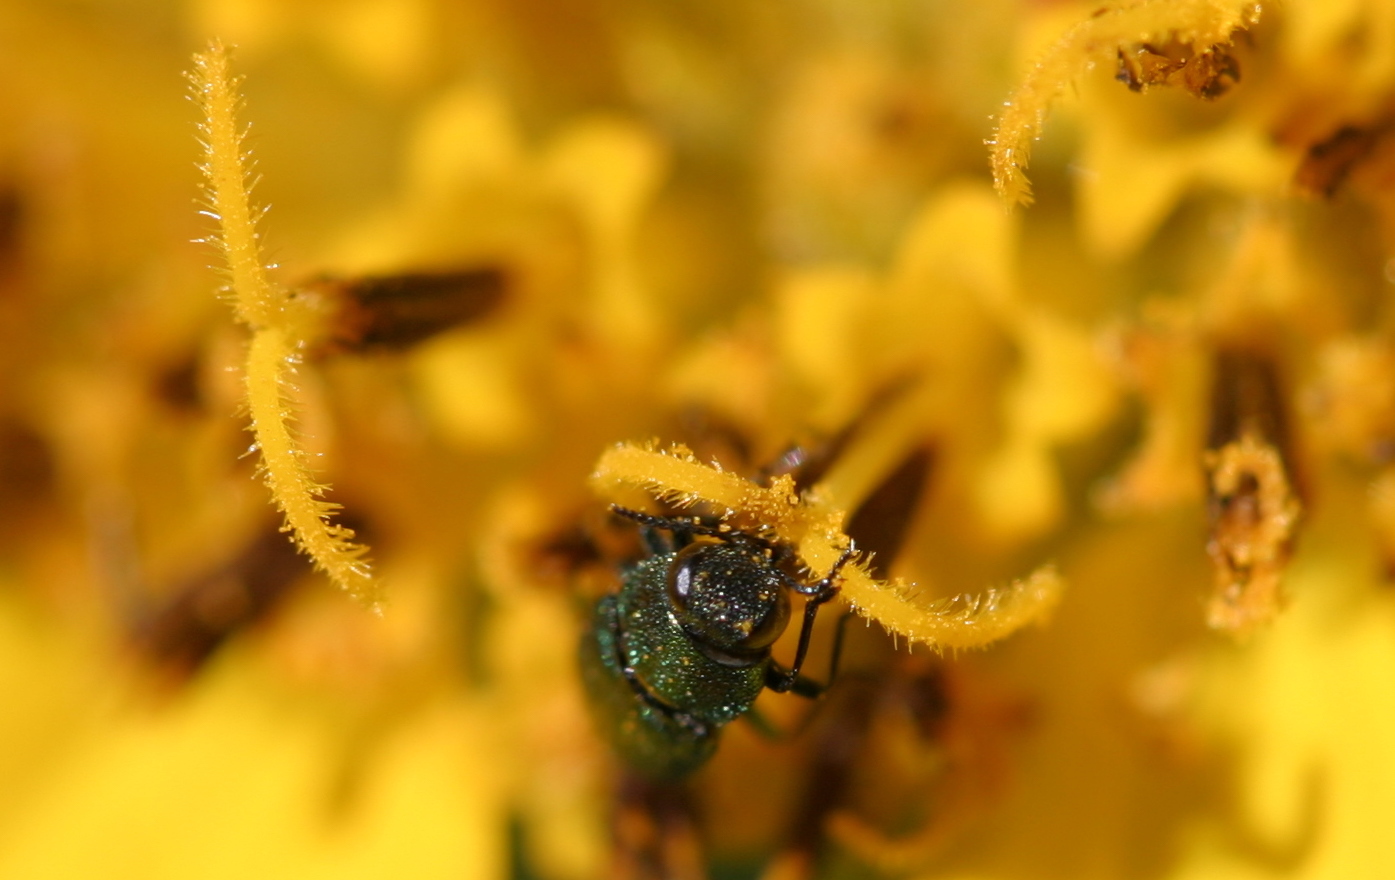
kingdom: Plantae
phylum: Tracheophyta
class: Magnoliopsida
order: Asterales
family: Asteraceae
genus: Balsamorhiza
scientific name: Balsamorhiza careyana
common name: Carey's balsamroot
